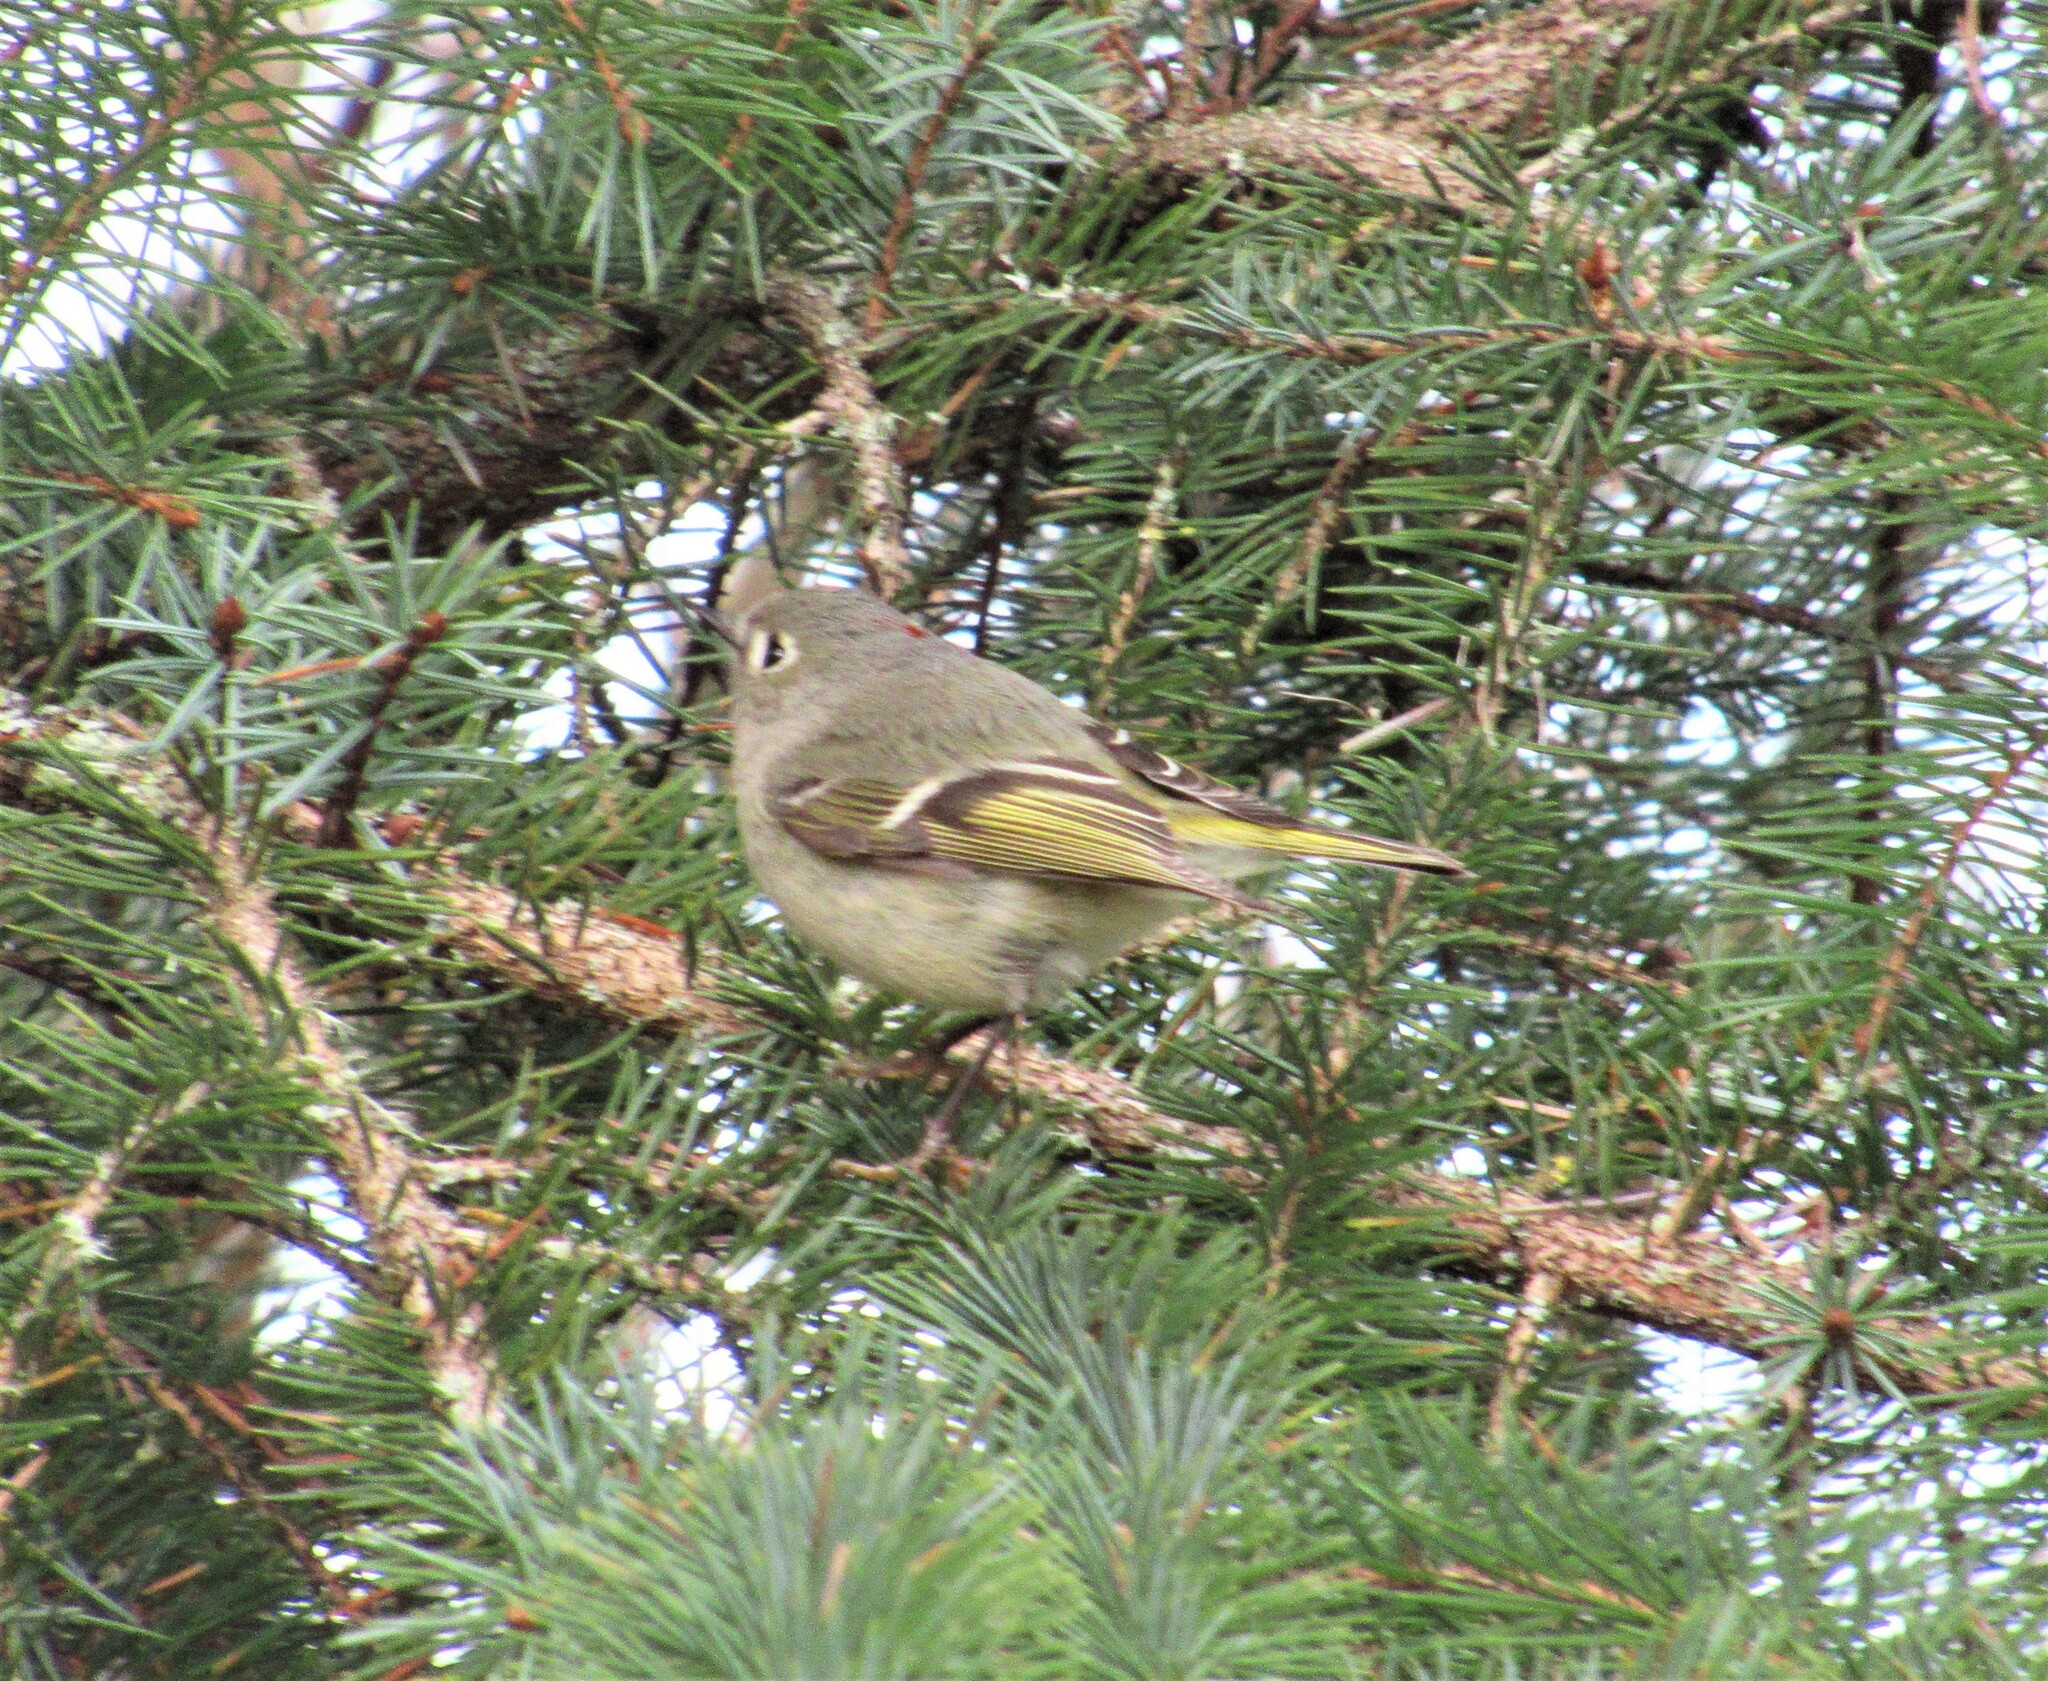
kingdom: Animalia
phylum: Chordata
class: Aves
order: Passeriformes
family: Regulidae
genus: Regulus
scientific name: Regulus calendula
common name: Ruby-crowned kinglet
